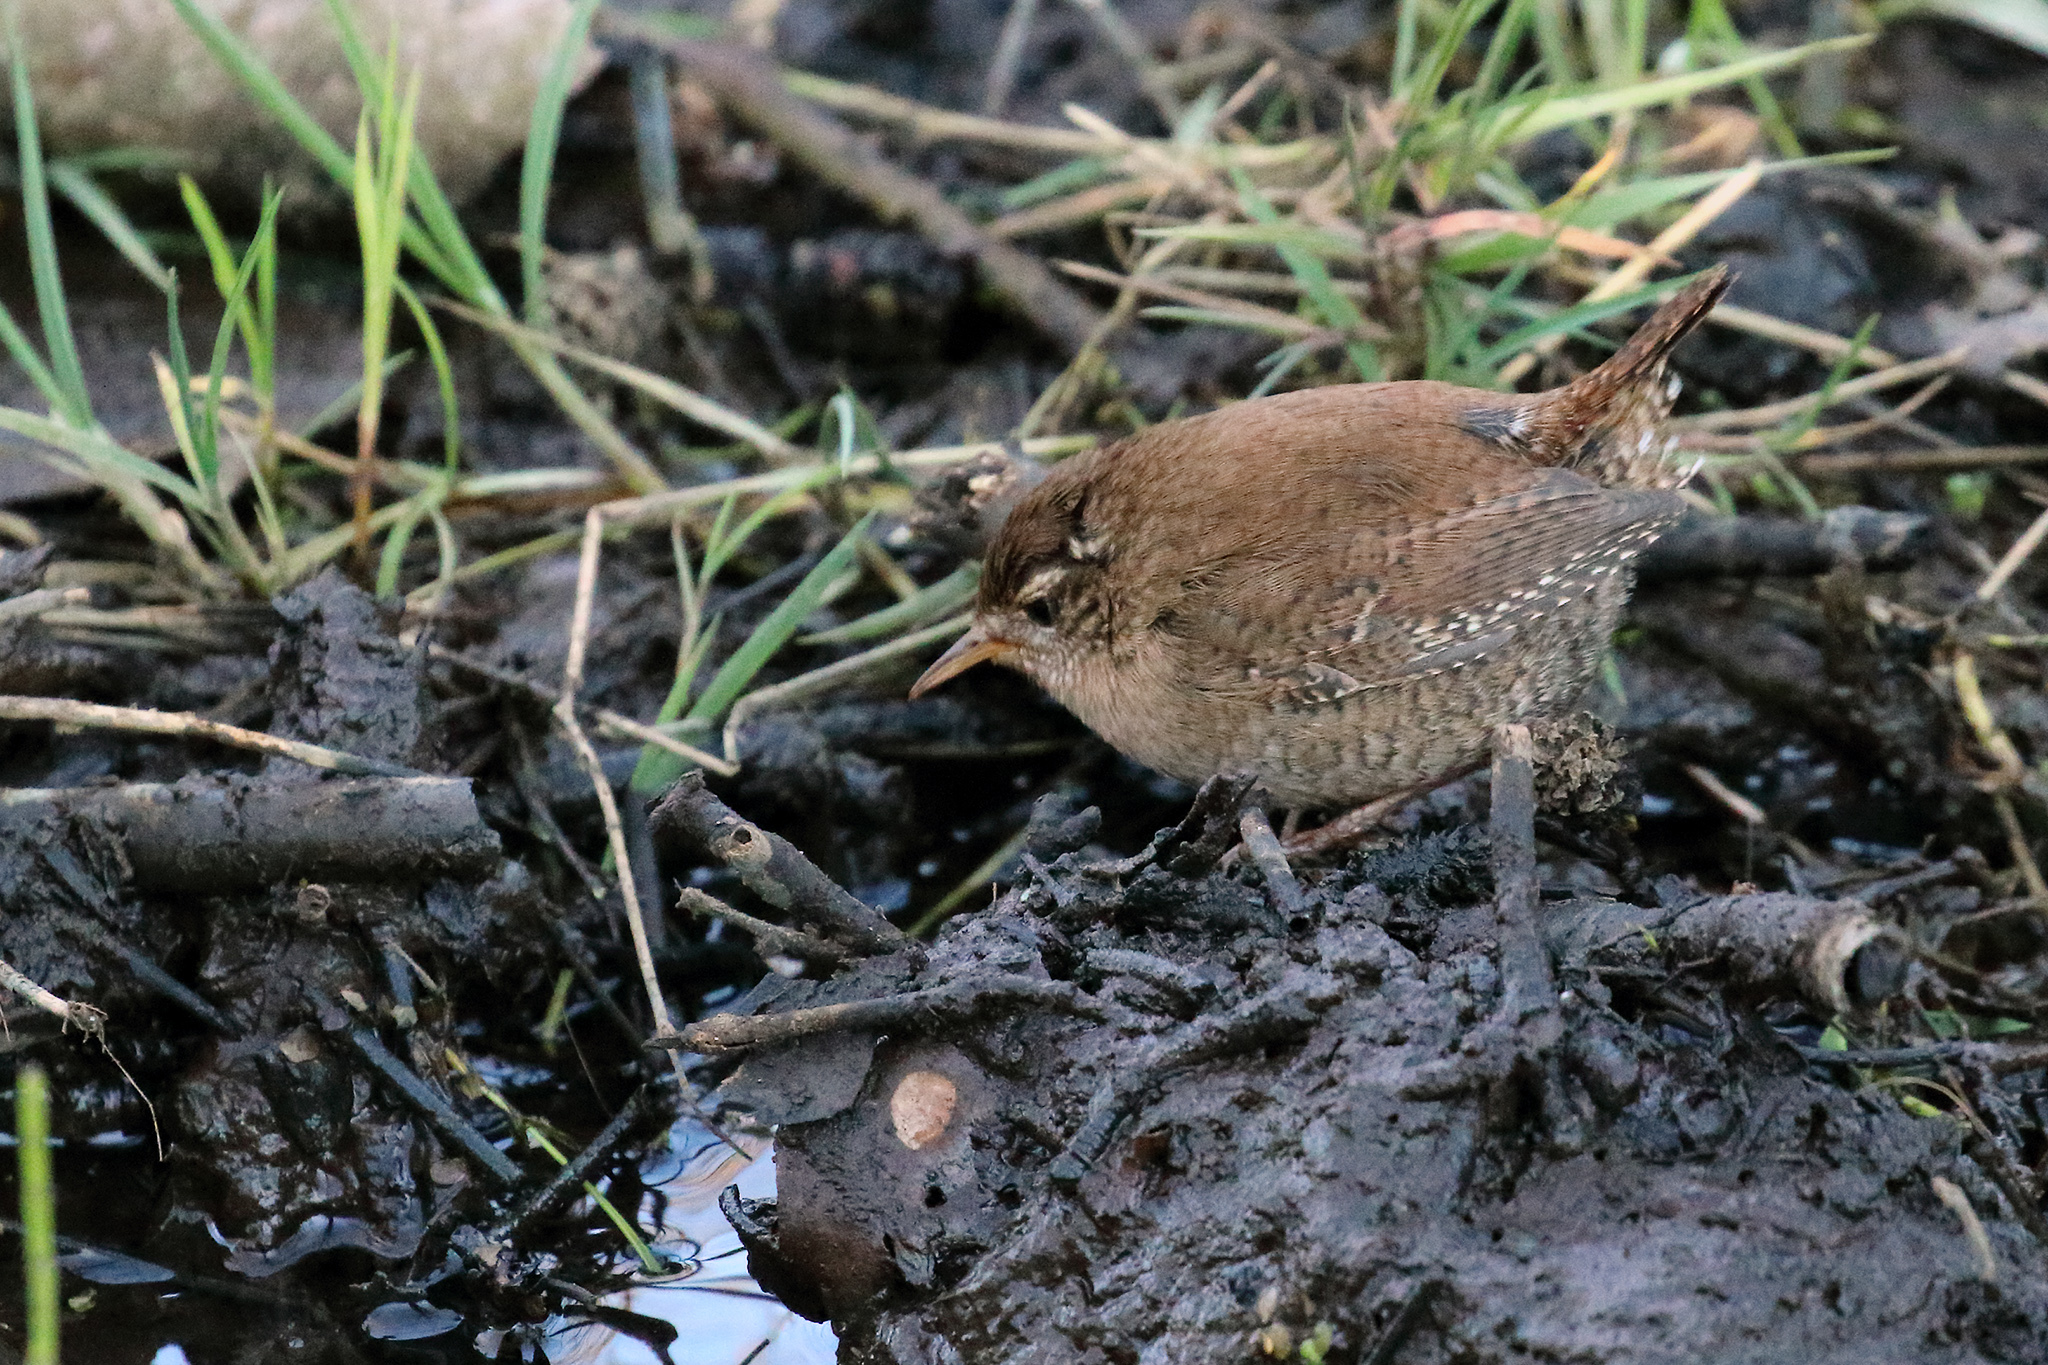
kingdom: Animalia
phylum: Chordata
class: Aves
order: Passeriformes
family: Troglodytidae
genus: Troglodytes
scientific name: Troglodytes troglodytes
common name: Eurasian wren
